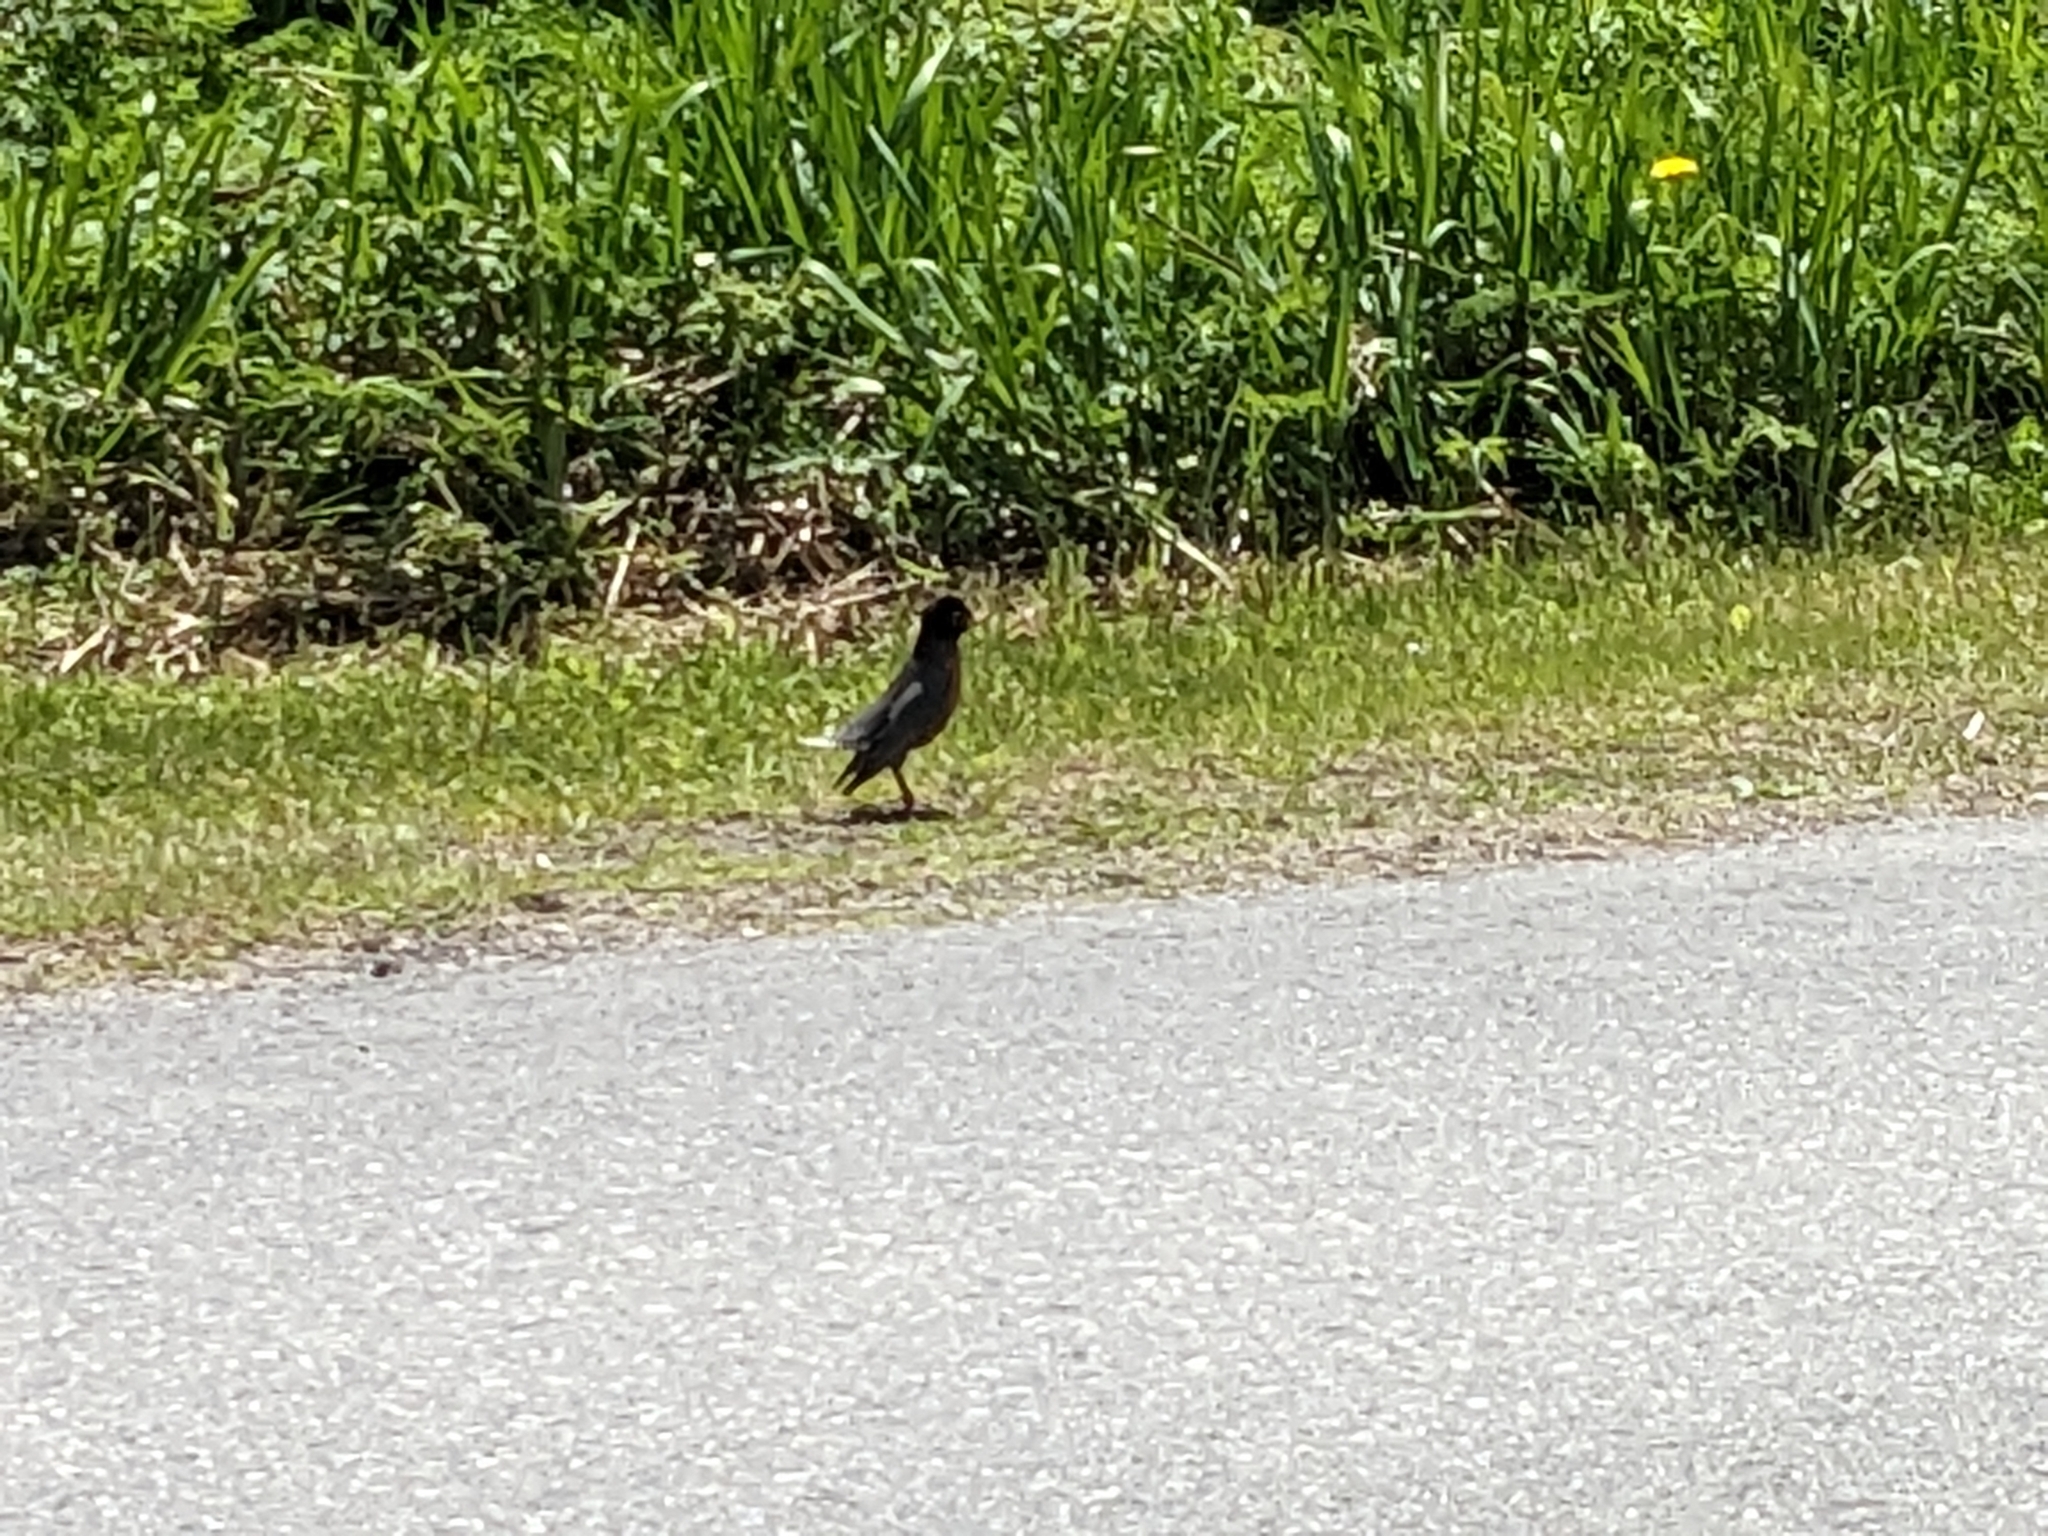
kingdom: Animalia
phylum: Chordata
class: Aves
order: Passeriformes
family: Turdidae
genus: Turdus
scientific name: Turdus migratorius
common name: American robin
